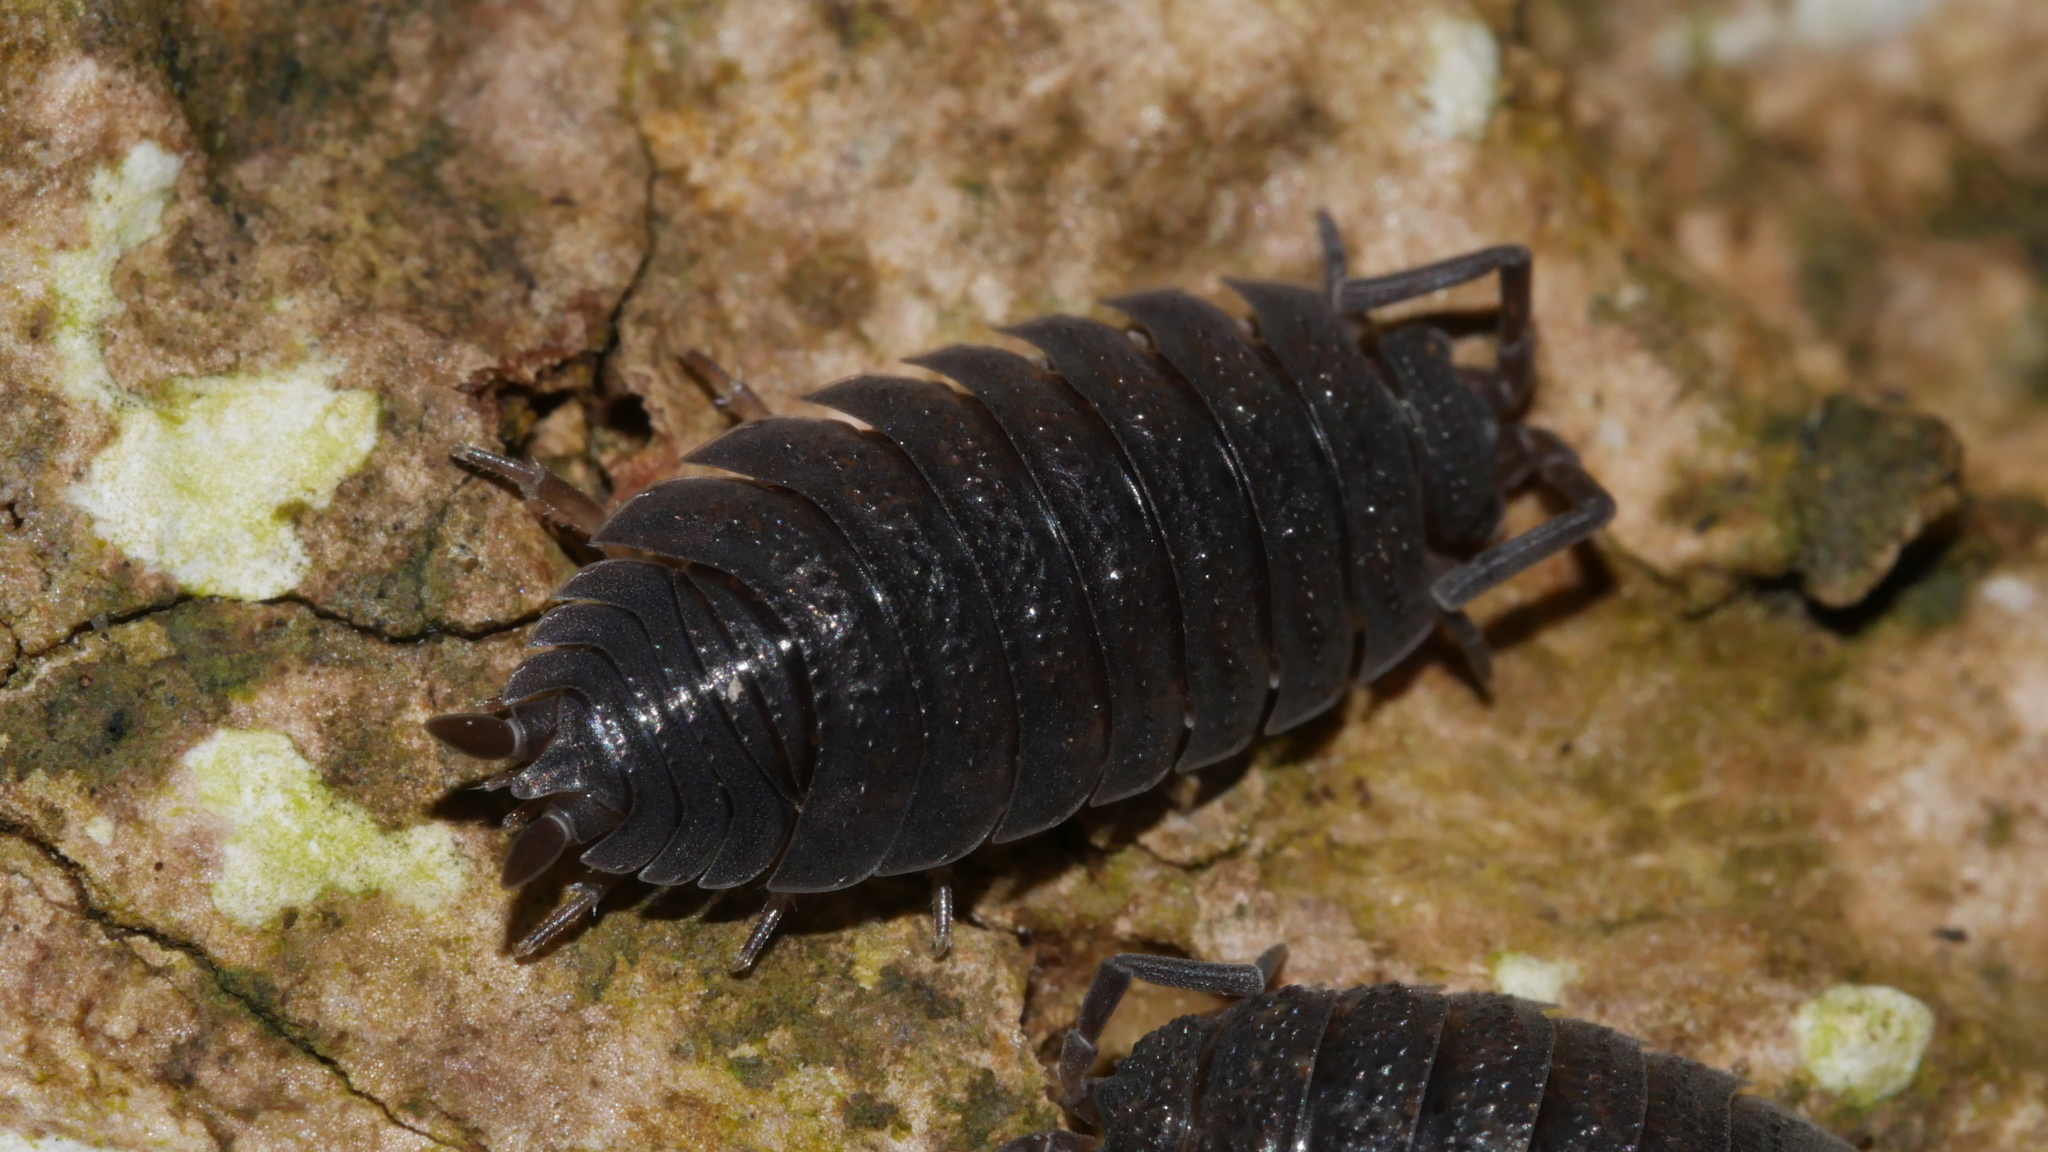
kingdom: Animalia
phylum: Arthropoda
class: Malacostraca
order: Isopoda
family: Porcellionidae
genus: Porcellio
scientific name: Porcellio scaber
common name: Common rough woodlouse
